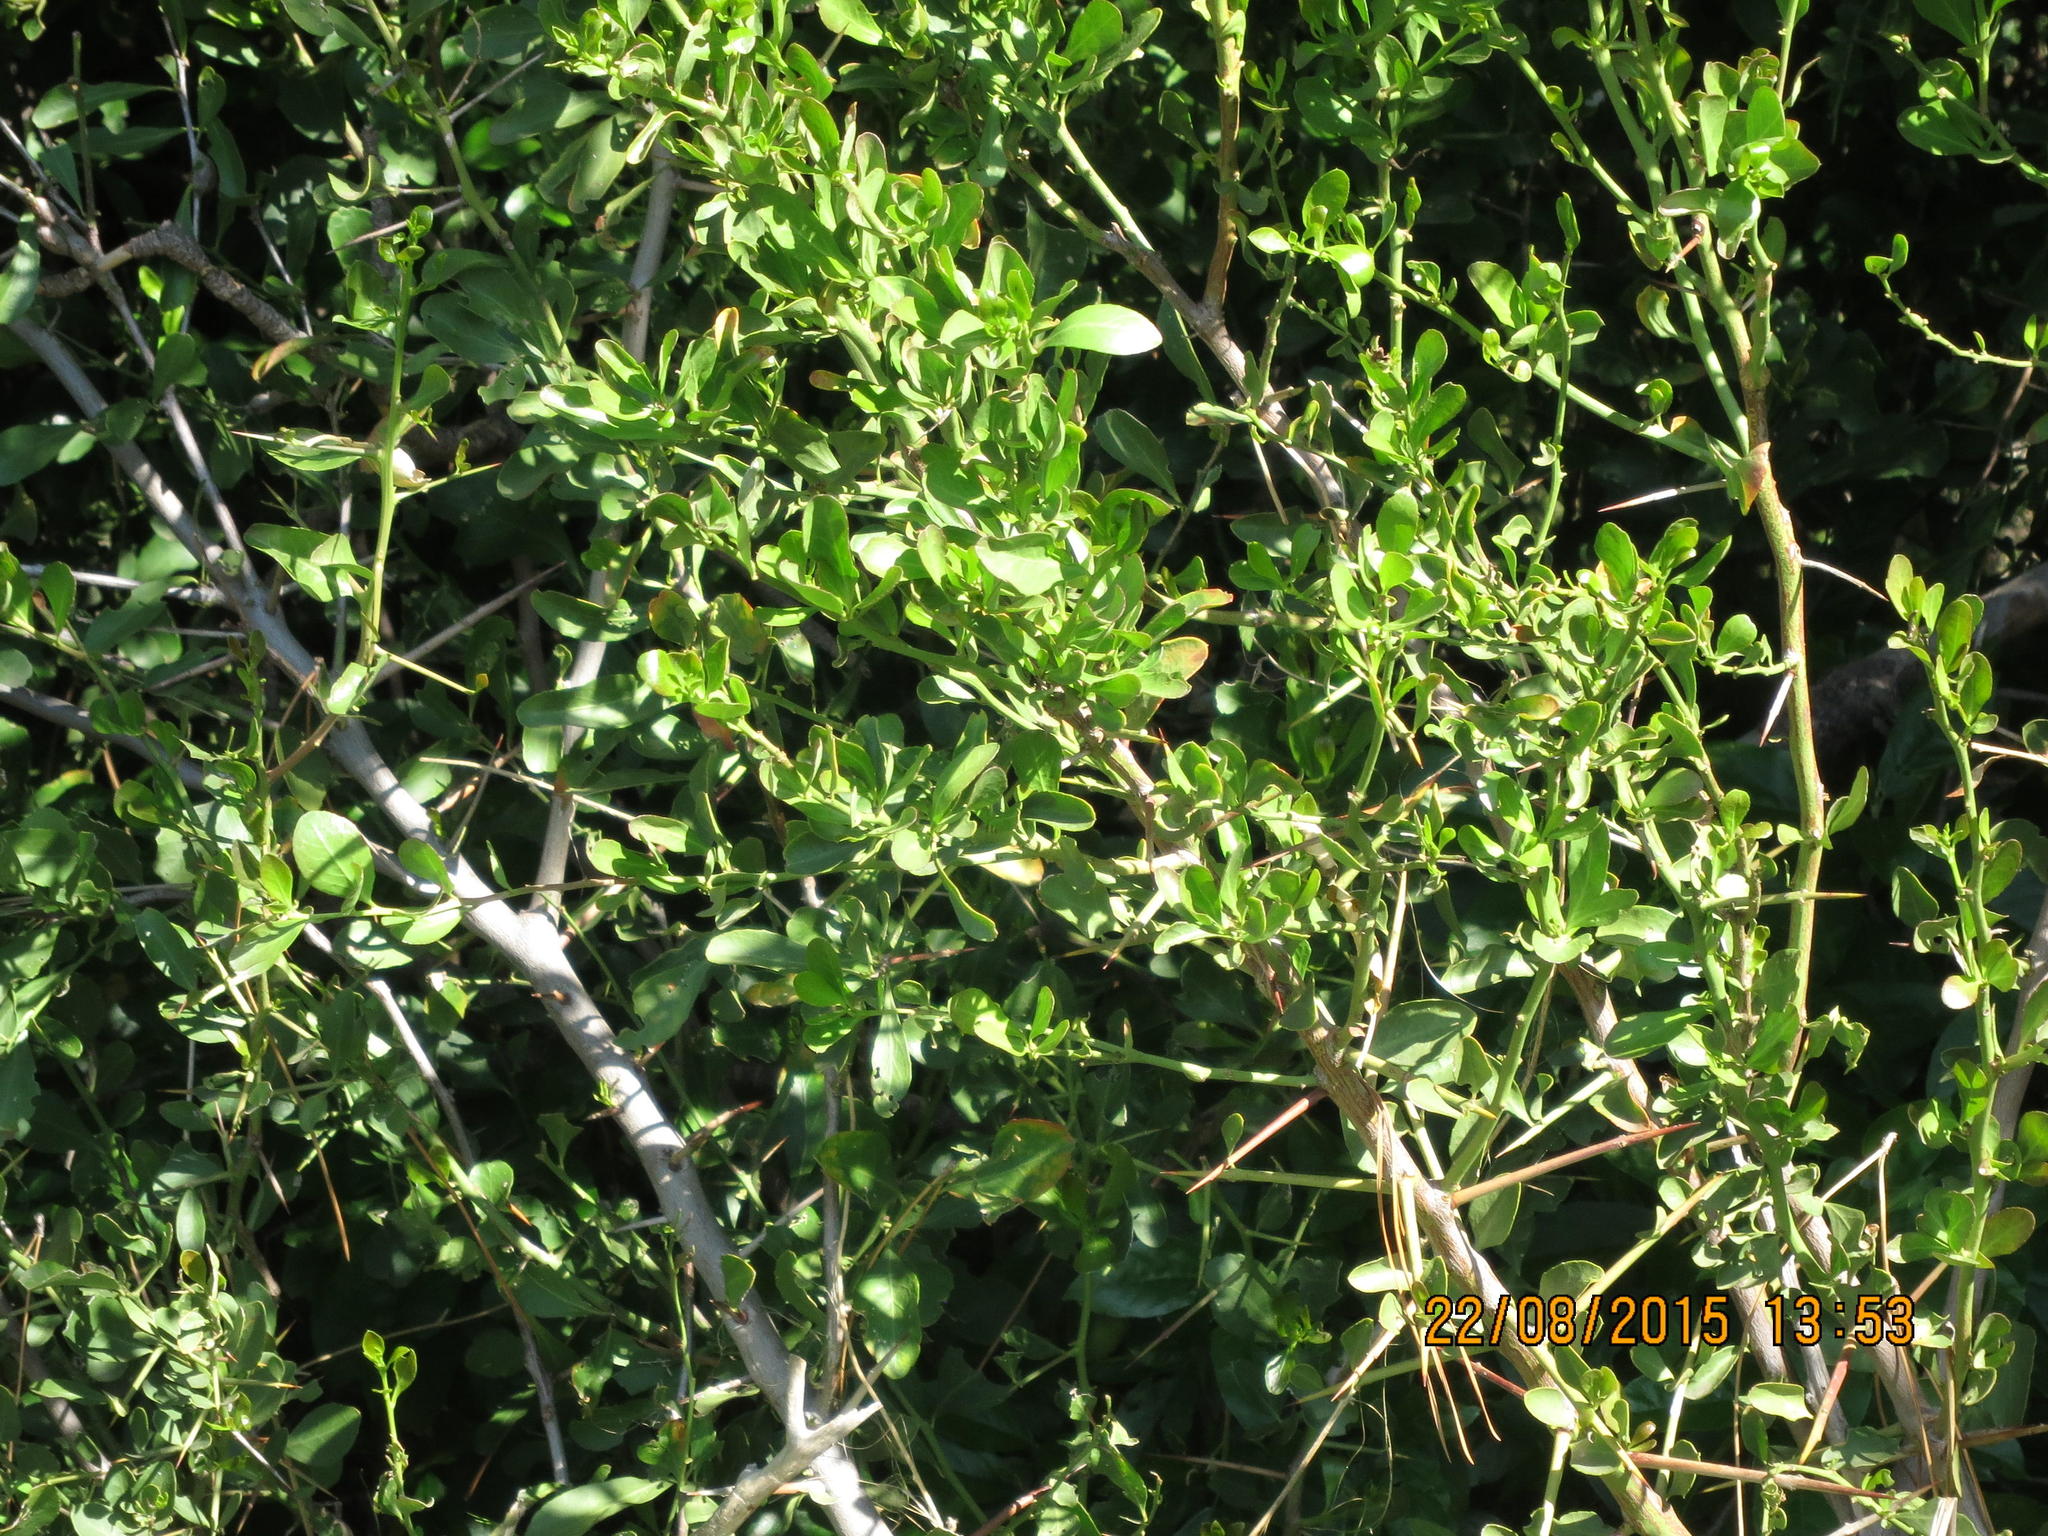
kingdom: Plantae
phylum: Tracheophyta
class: Magnoliopsida
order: Celastrales
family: Celastraceae
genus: Gymnosporia
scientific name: Gymnosporia buxifolia
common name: Common spike-thorn
